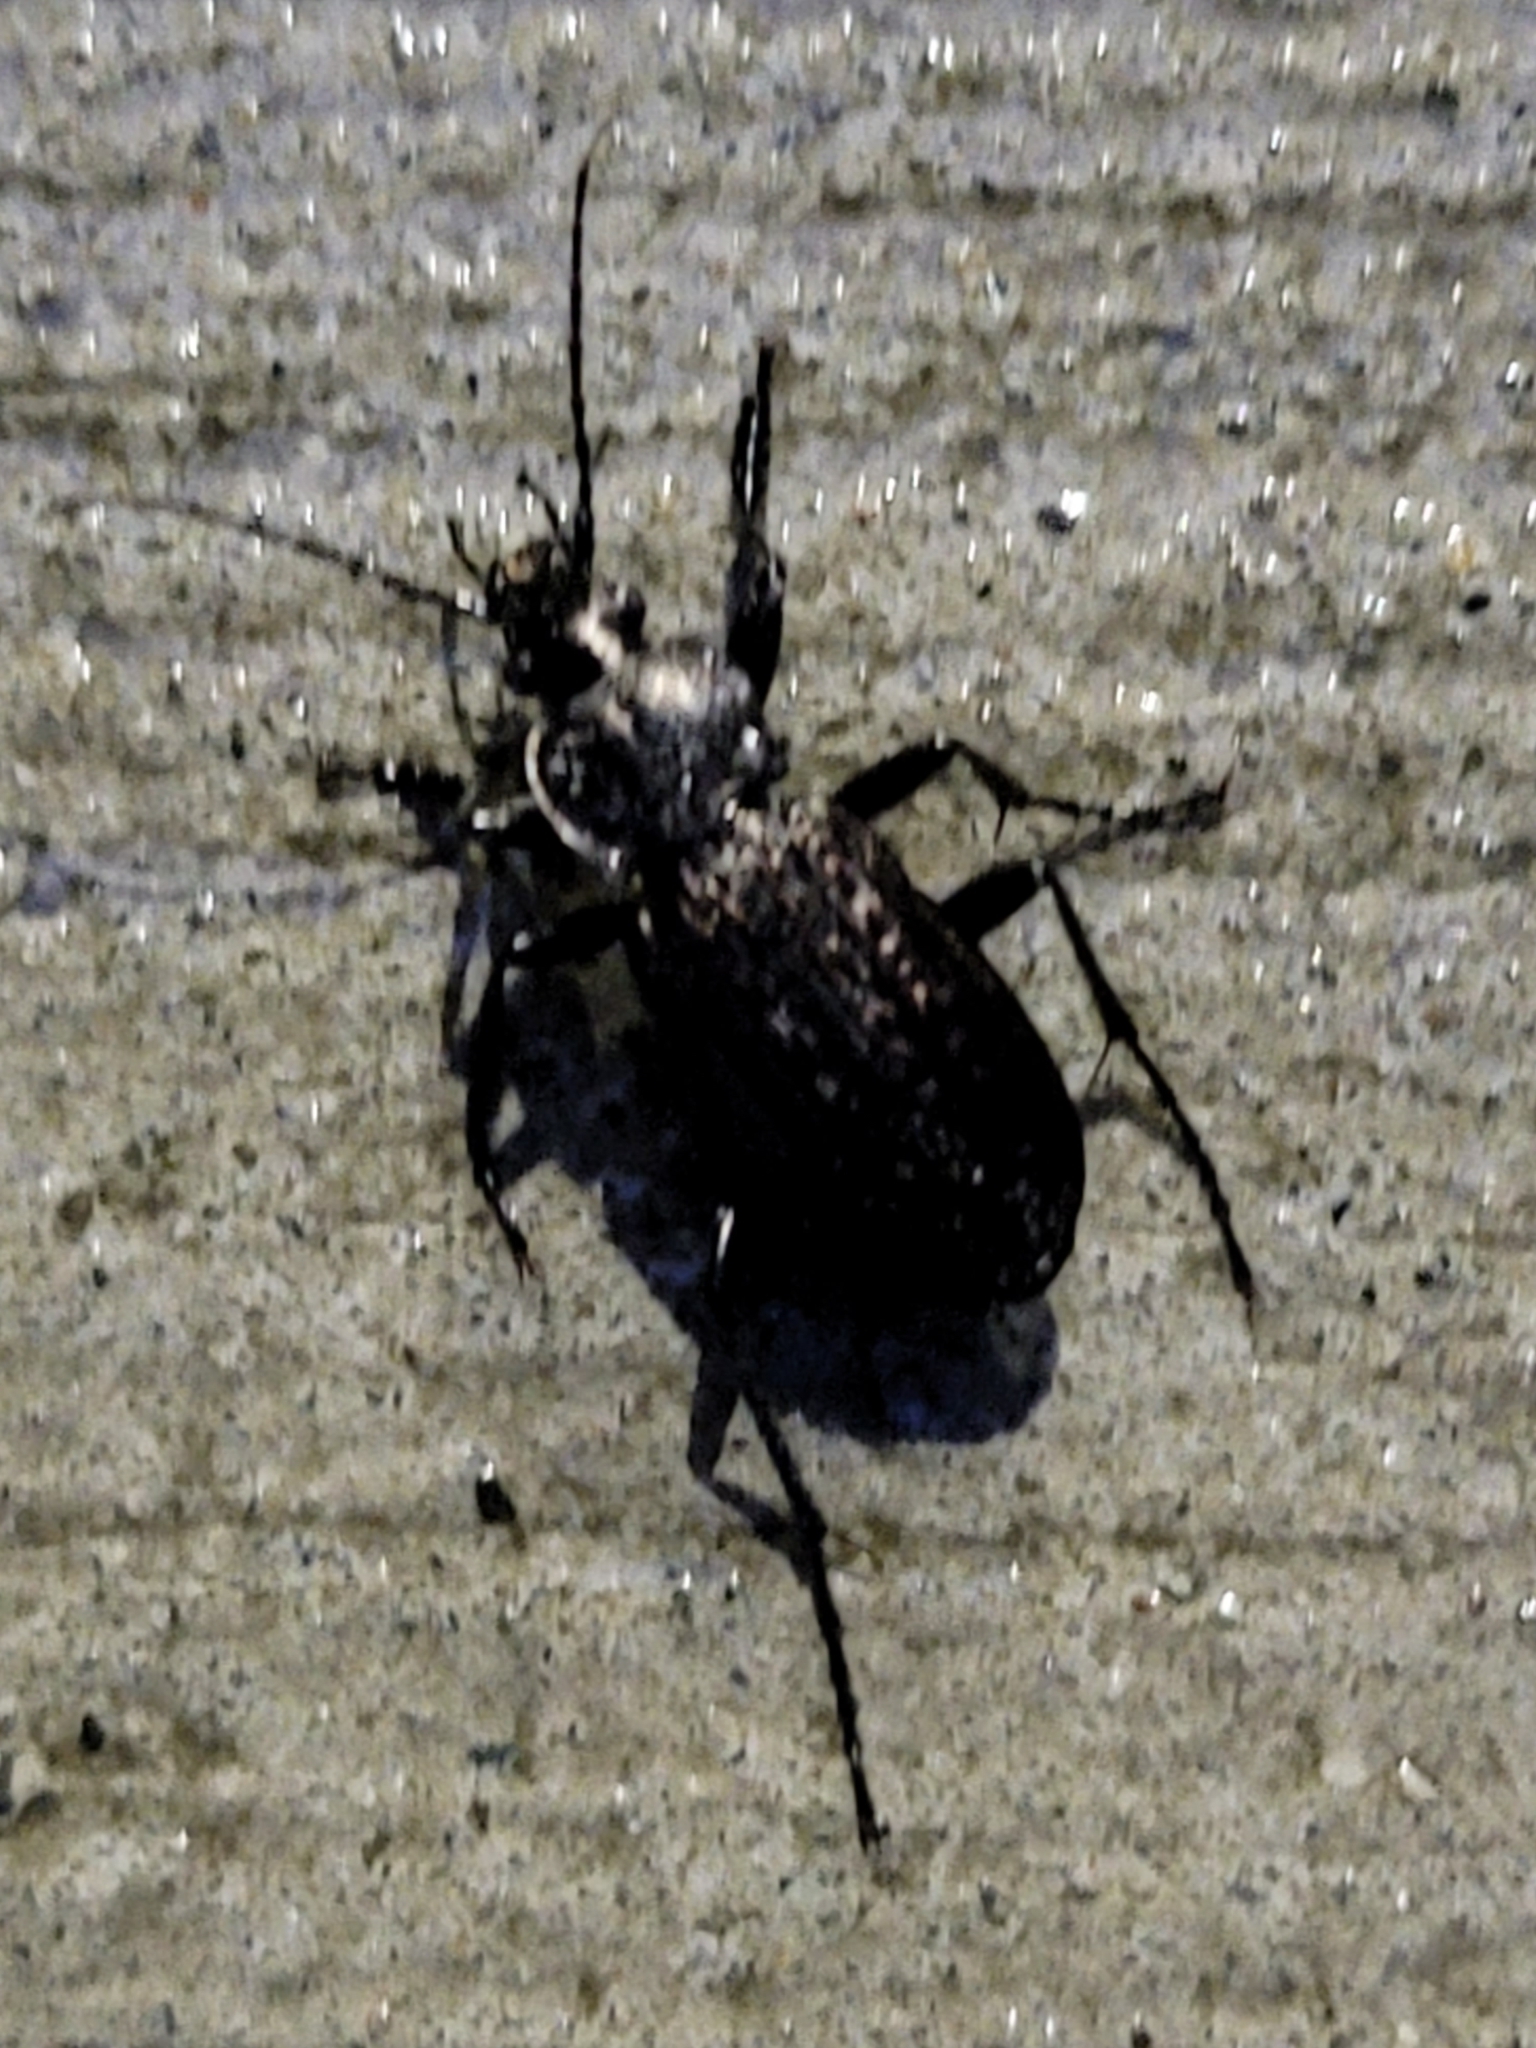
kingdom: Animalia
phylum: Arthropoda
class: Insecta
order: Coleoptera
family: Carabidae
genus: Carabus
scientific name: Carabus granulatus
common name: Granulate ground beetle
